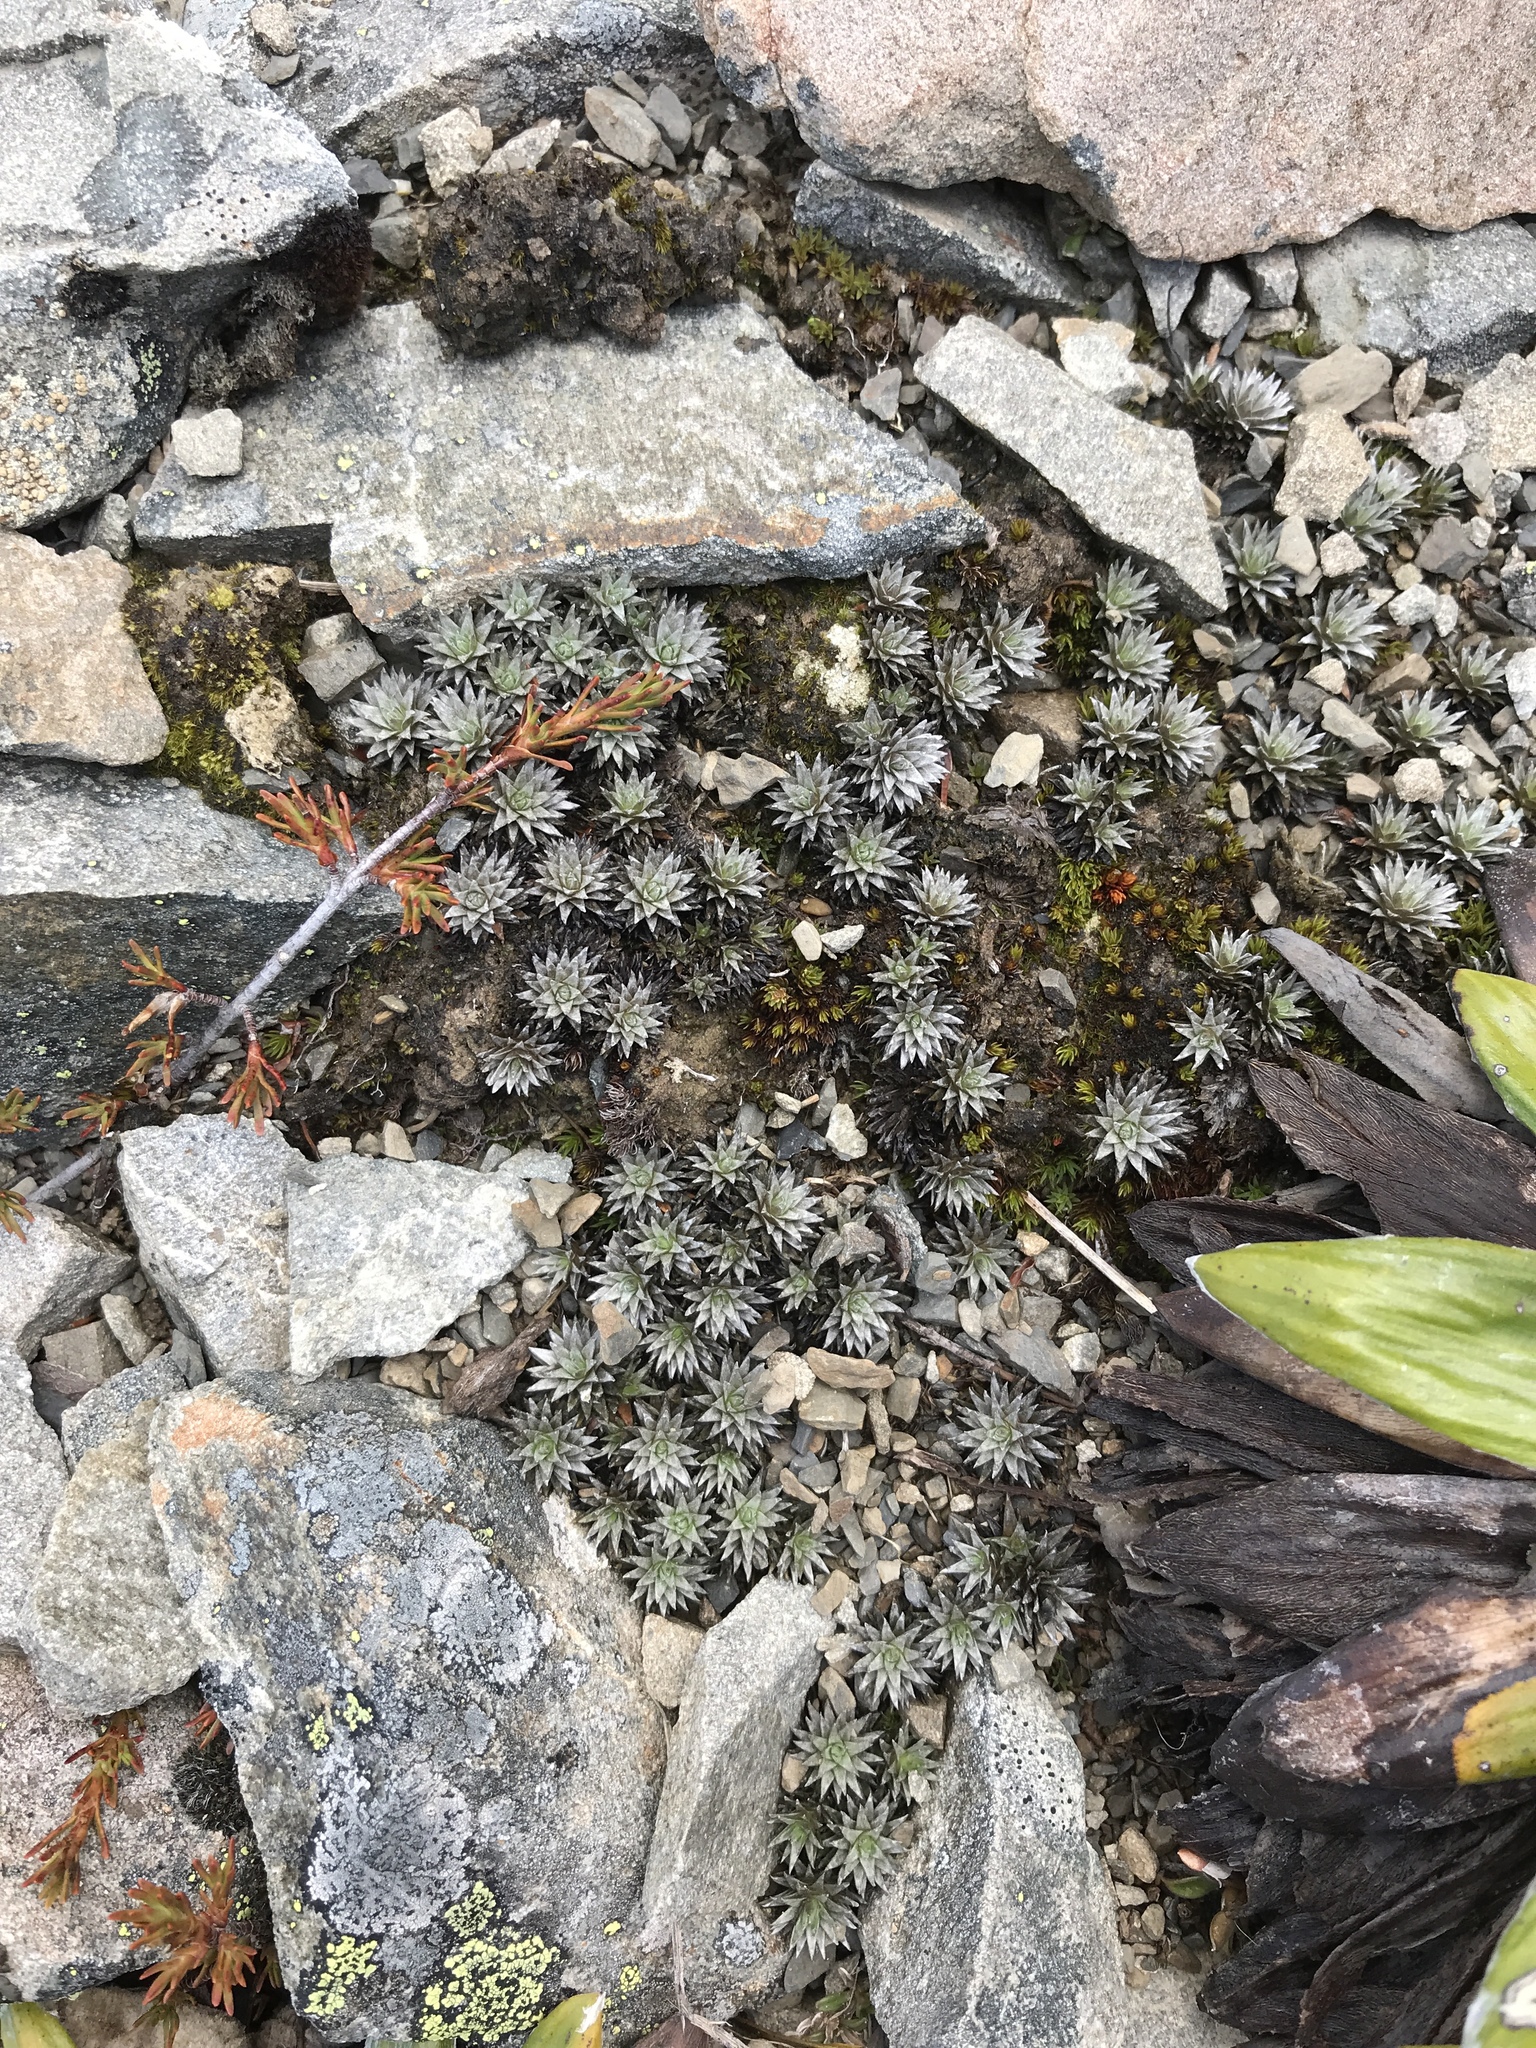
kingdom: Plantae
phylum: Tracheophyta
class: Magnoliopsida
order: Asterales
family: Asteraceae
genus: Raoulia
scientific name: Raoulia grandiflora
